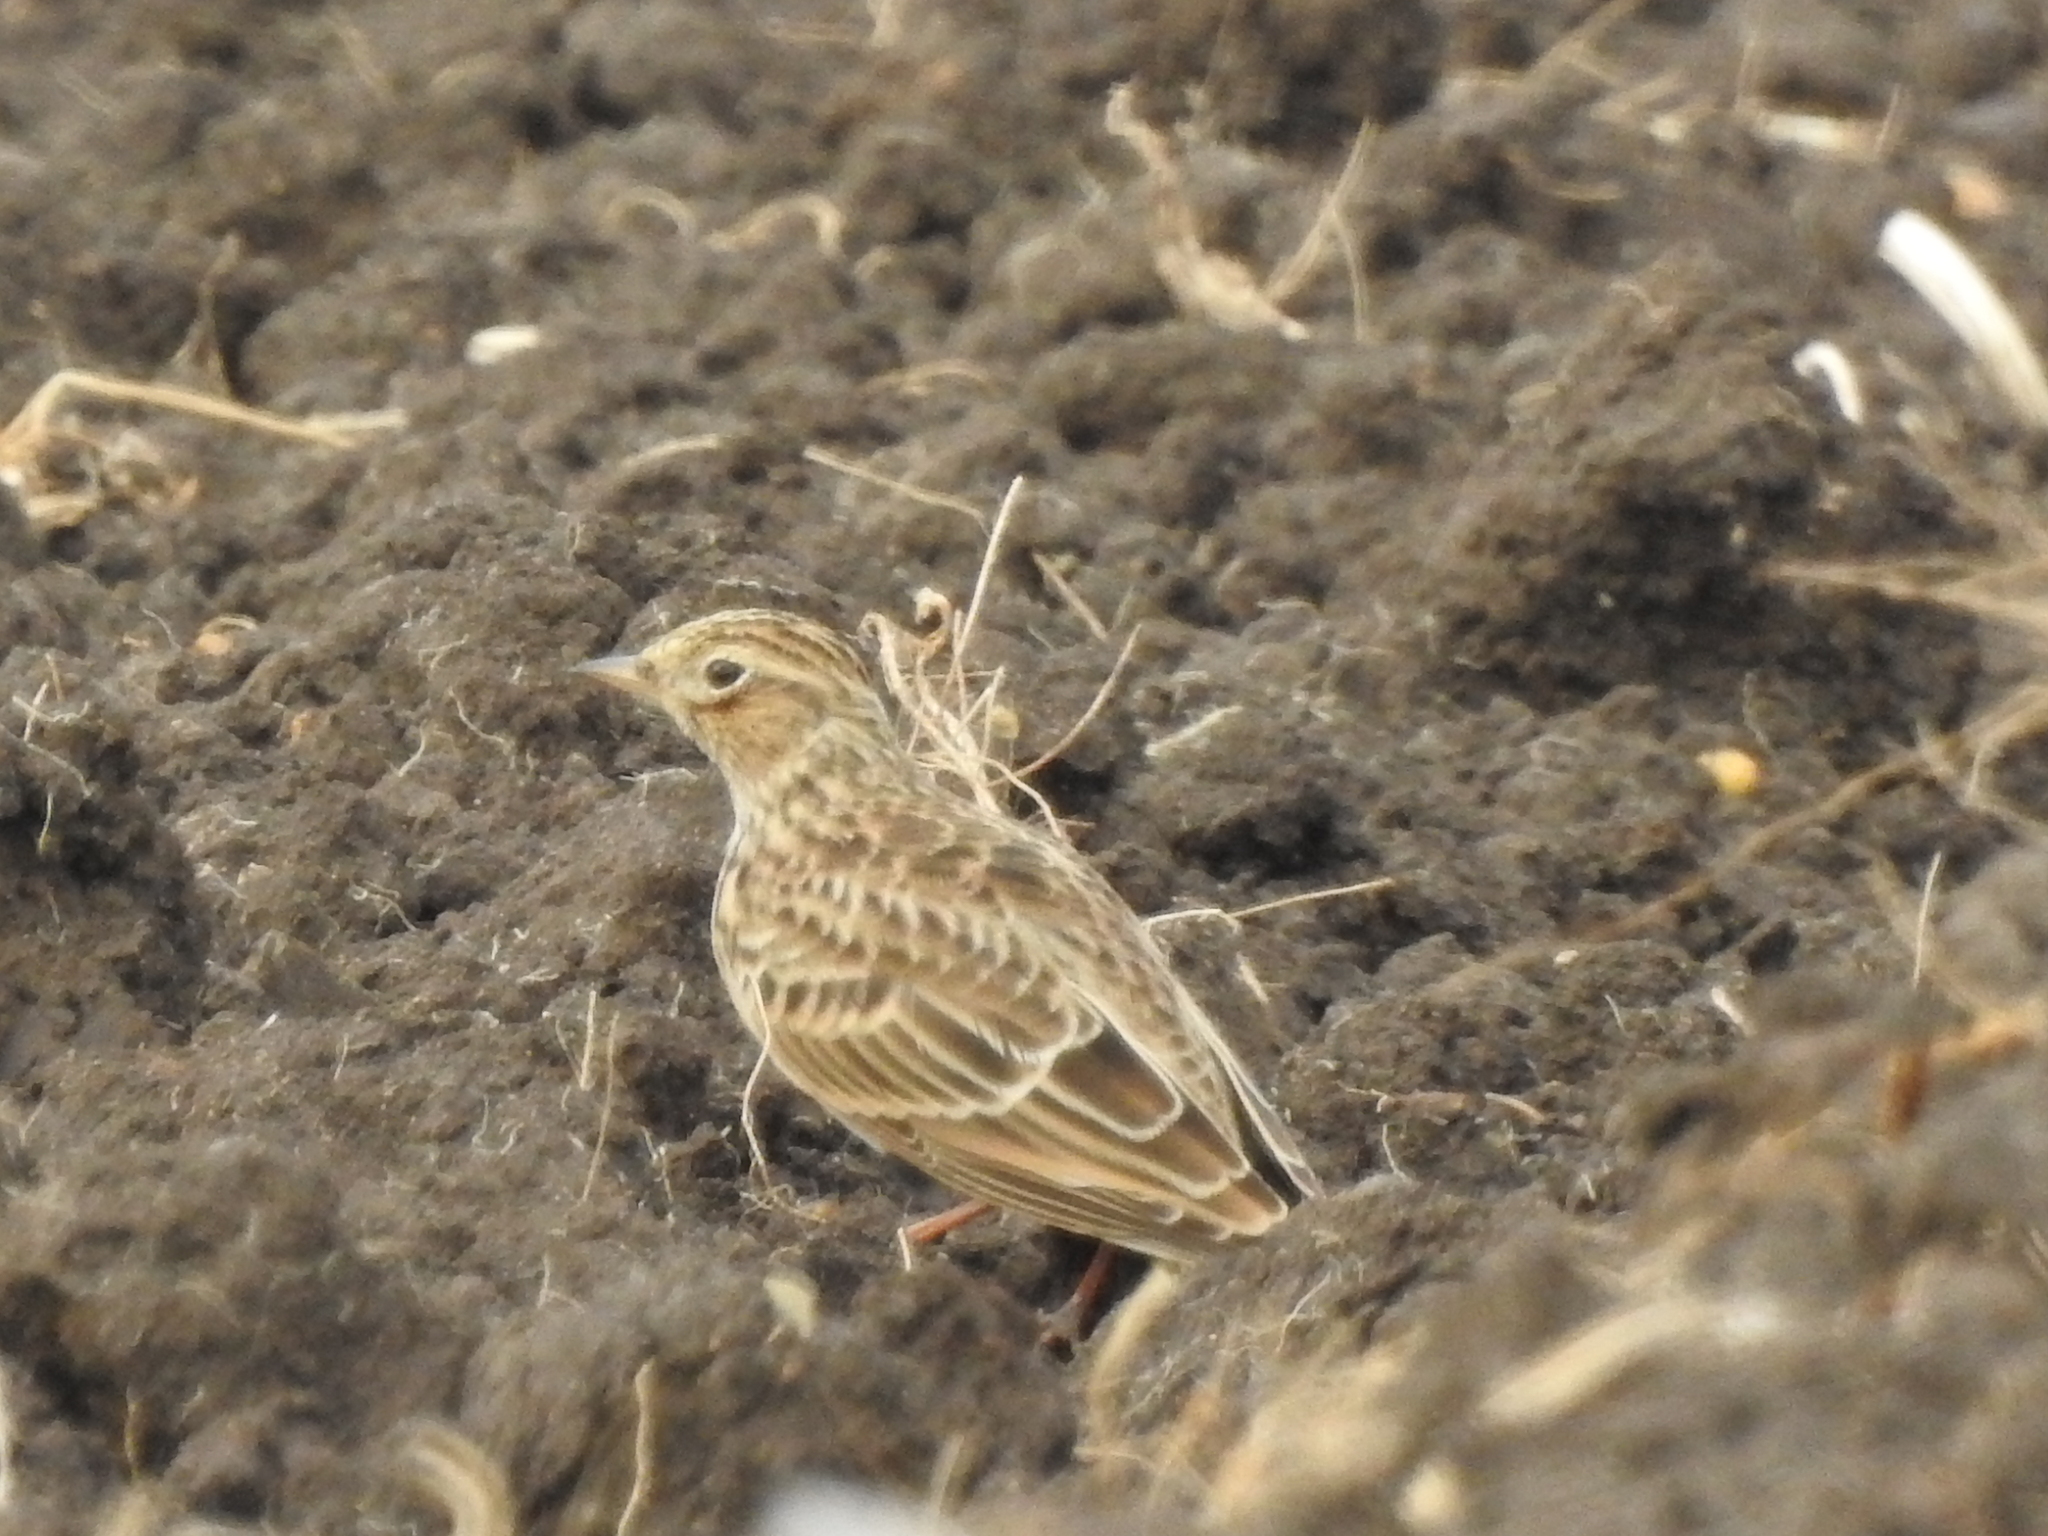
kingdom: Animalia
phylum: Chordata
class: Aves
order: Passeriformes
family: Alaudidae
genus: Alauda
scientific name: Alauda arvensis
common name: Eurasian skylark
